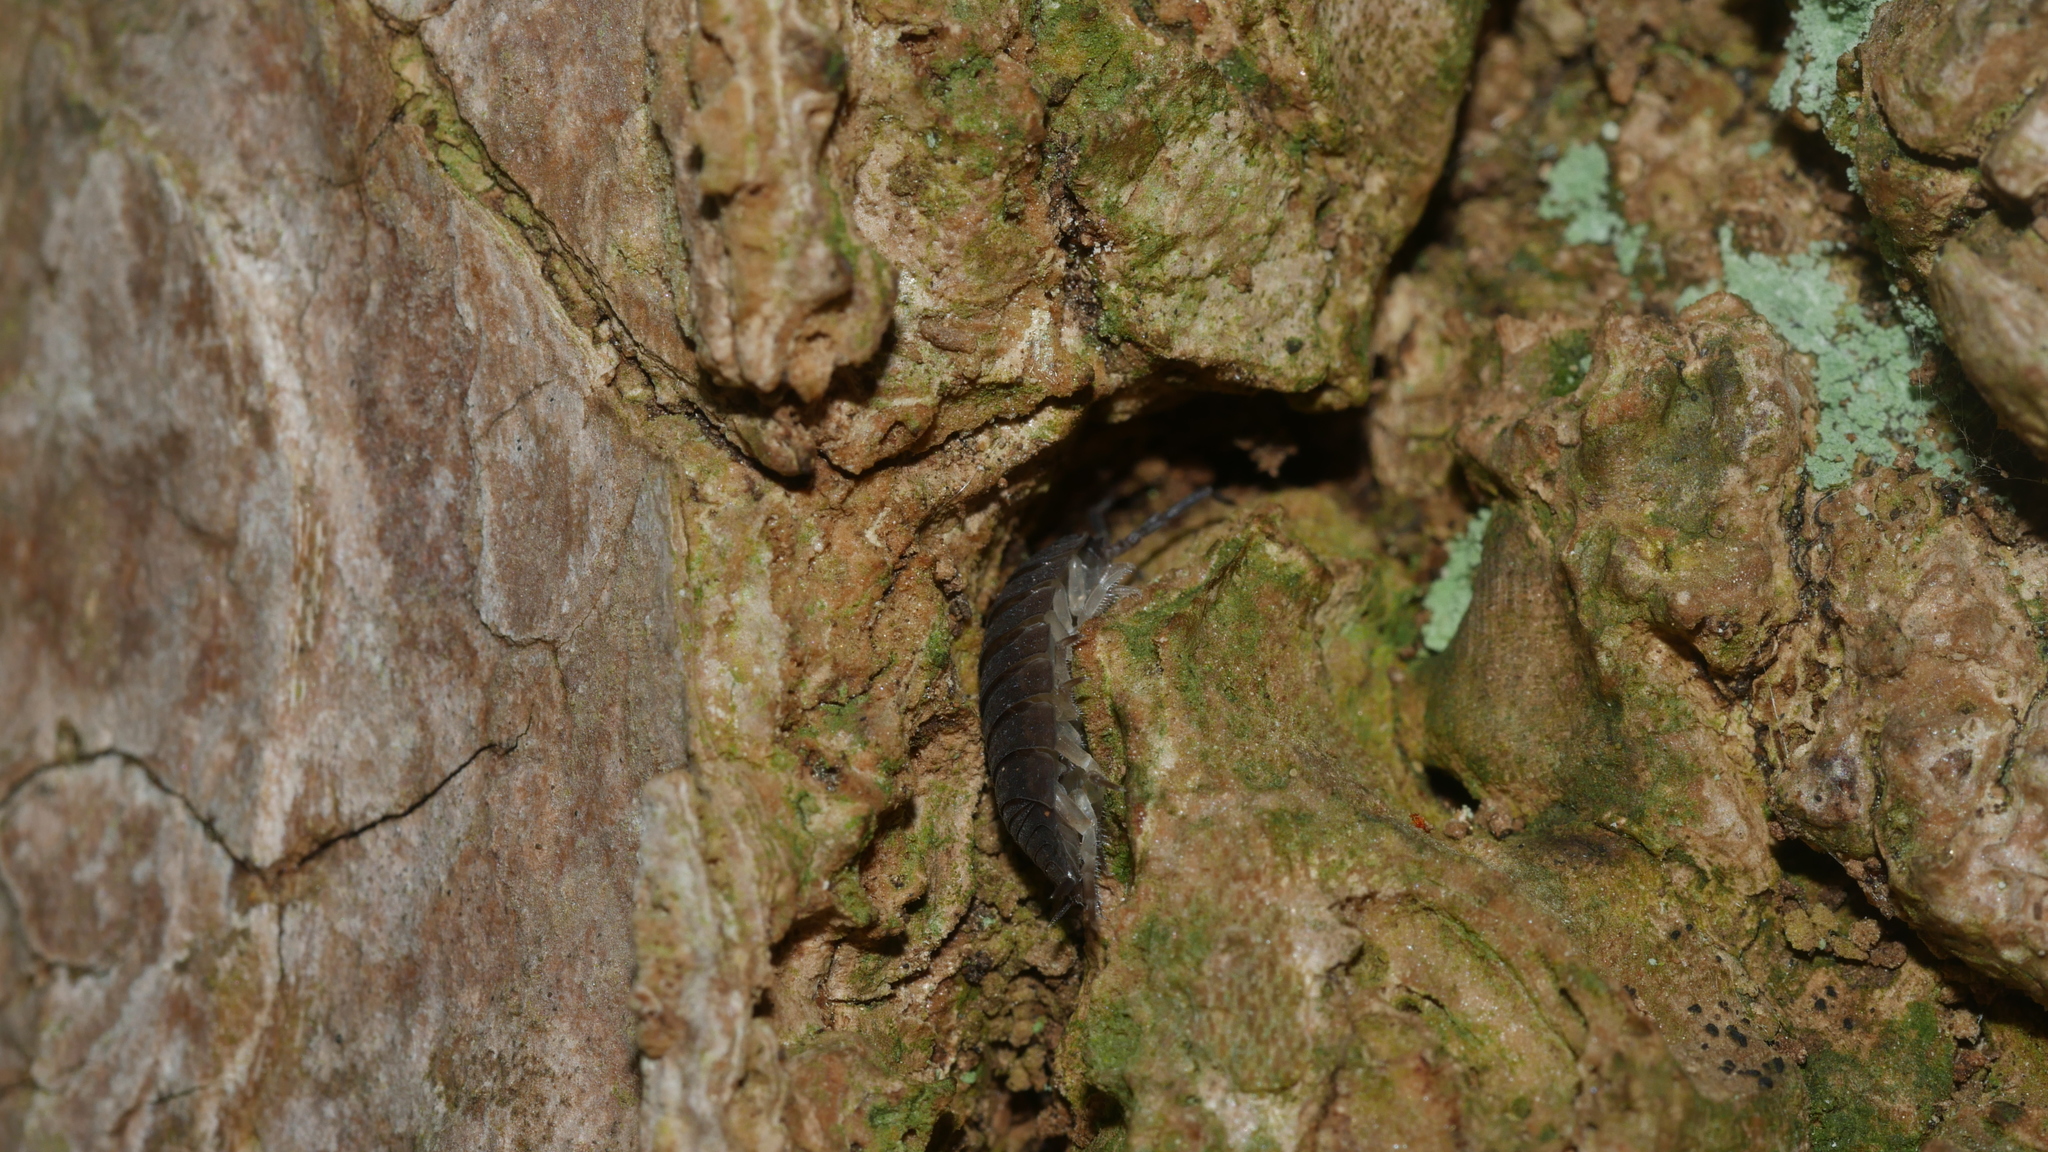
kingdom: Animalia
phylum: Arthropoda
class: Malacostraca
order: Isopoda
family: Porcellionidae
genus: Porcellio
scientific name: Porcellio scaber
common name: Common rough woodlouse
